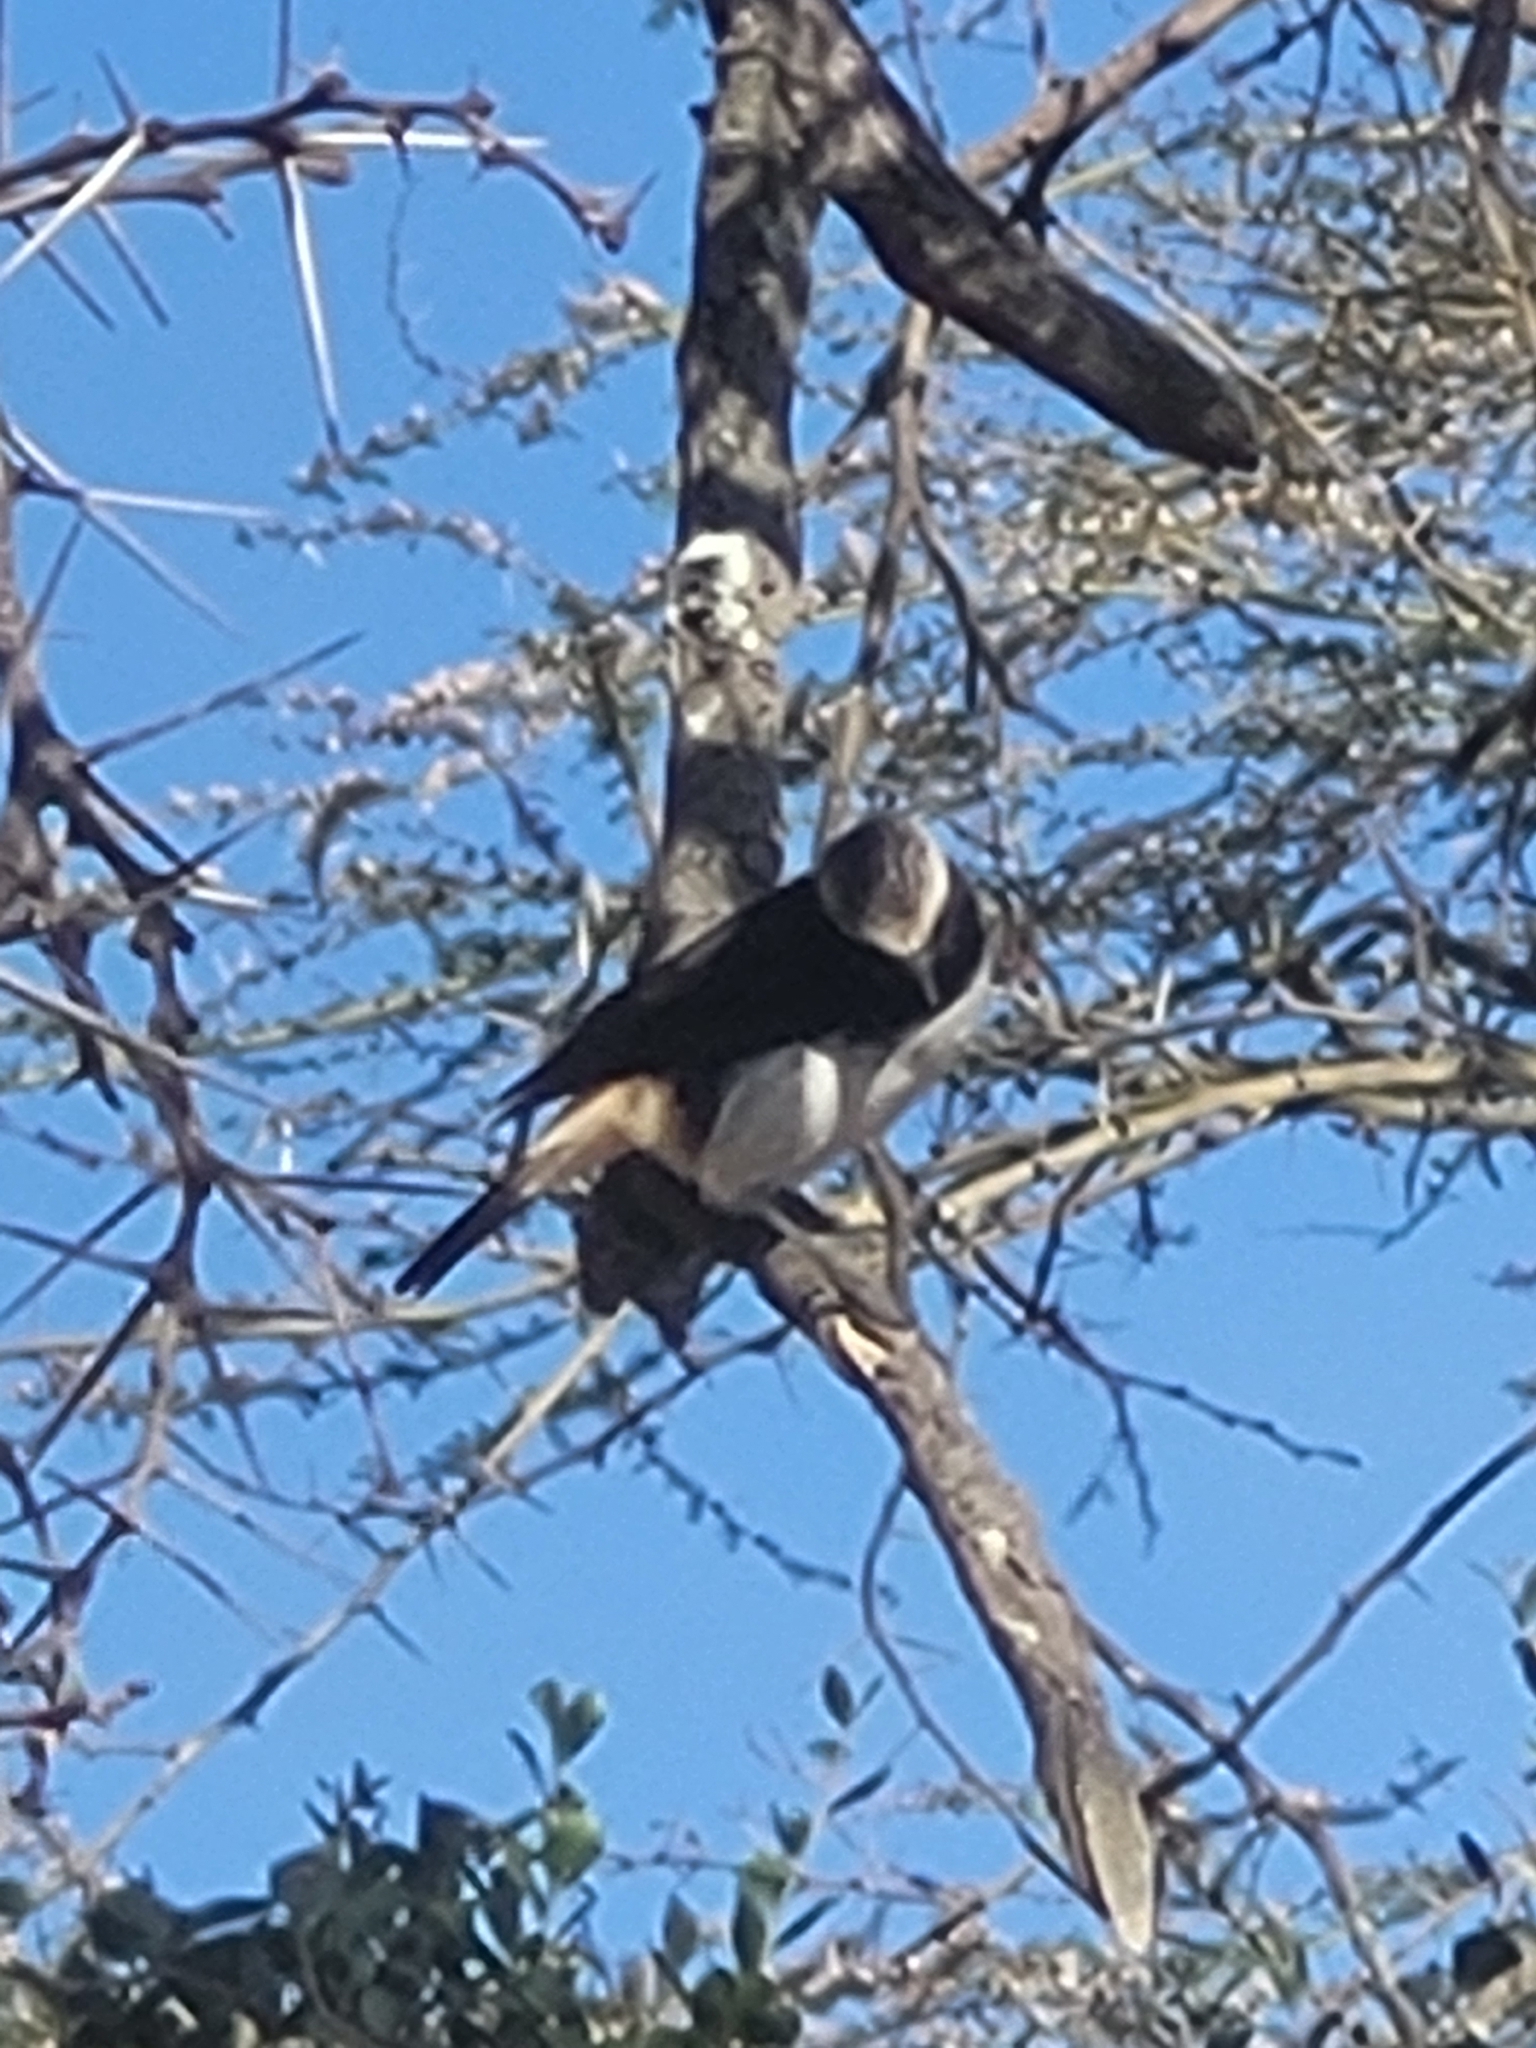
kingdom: Animalia
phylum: Chordata
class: Aves
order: Passeriformes
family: Muscicapidae
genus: Oenanthe
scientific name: Oenanthe lugubris
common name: Abyssinian wheatear
